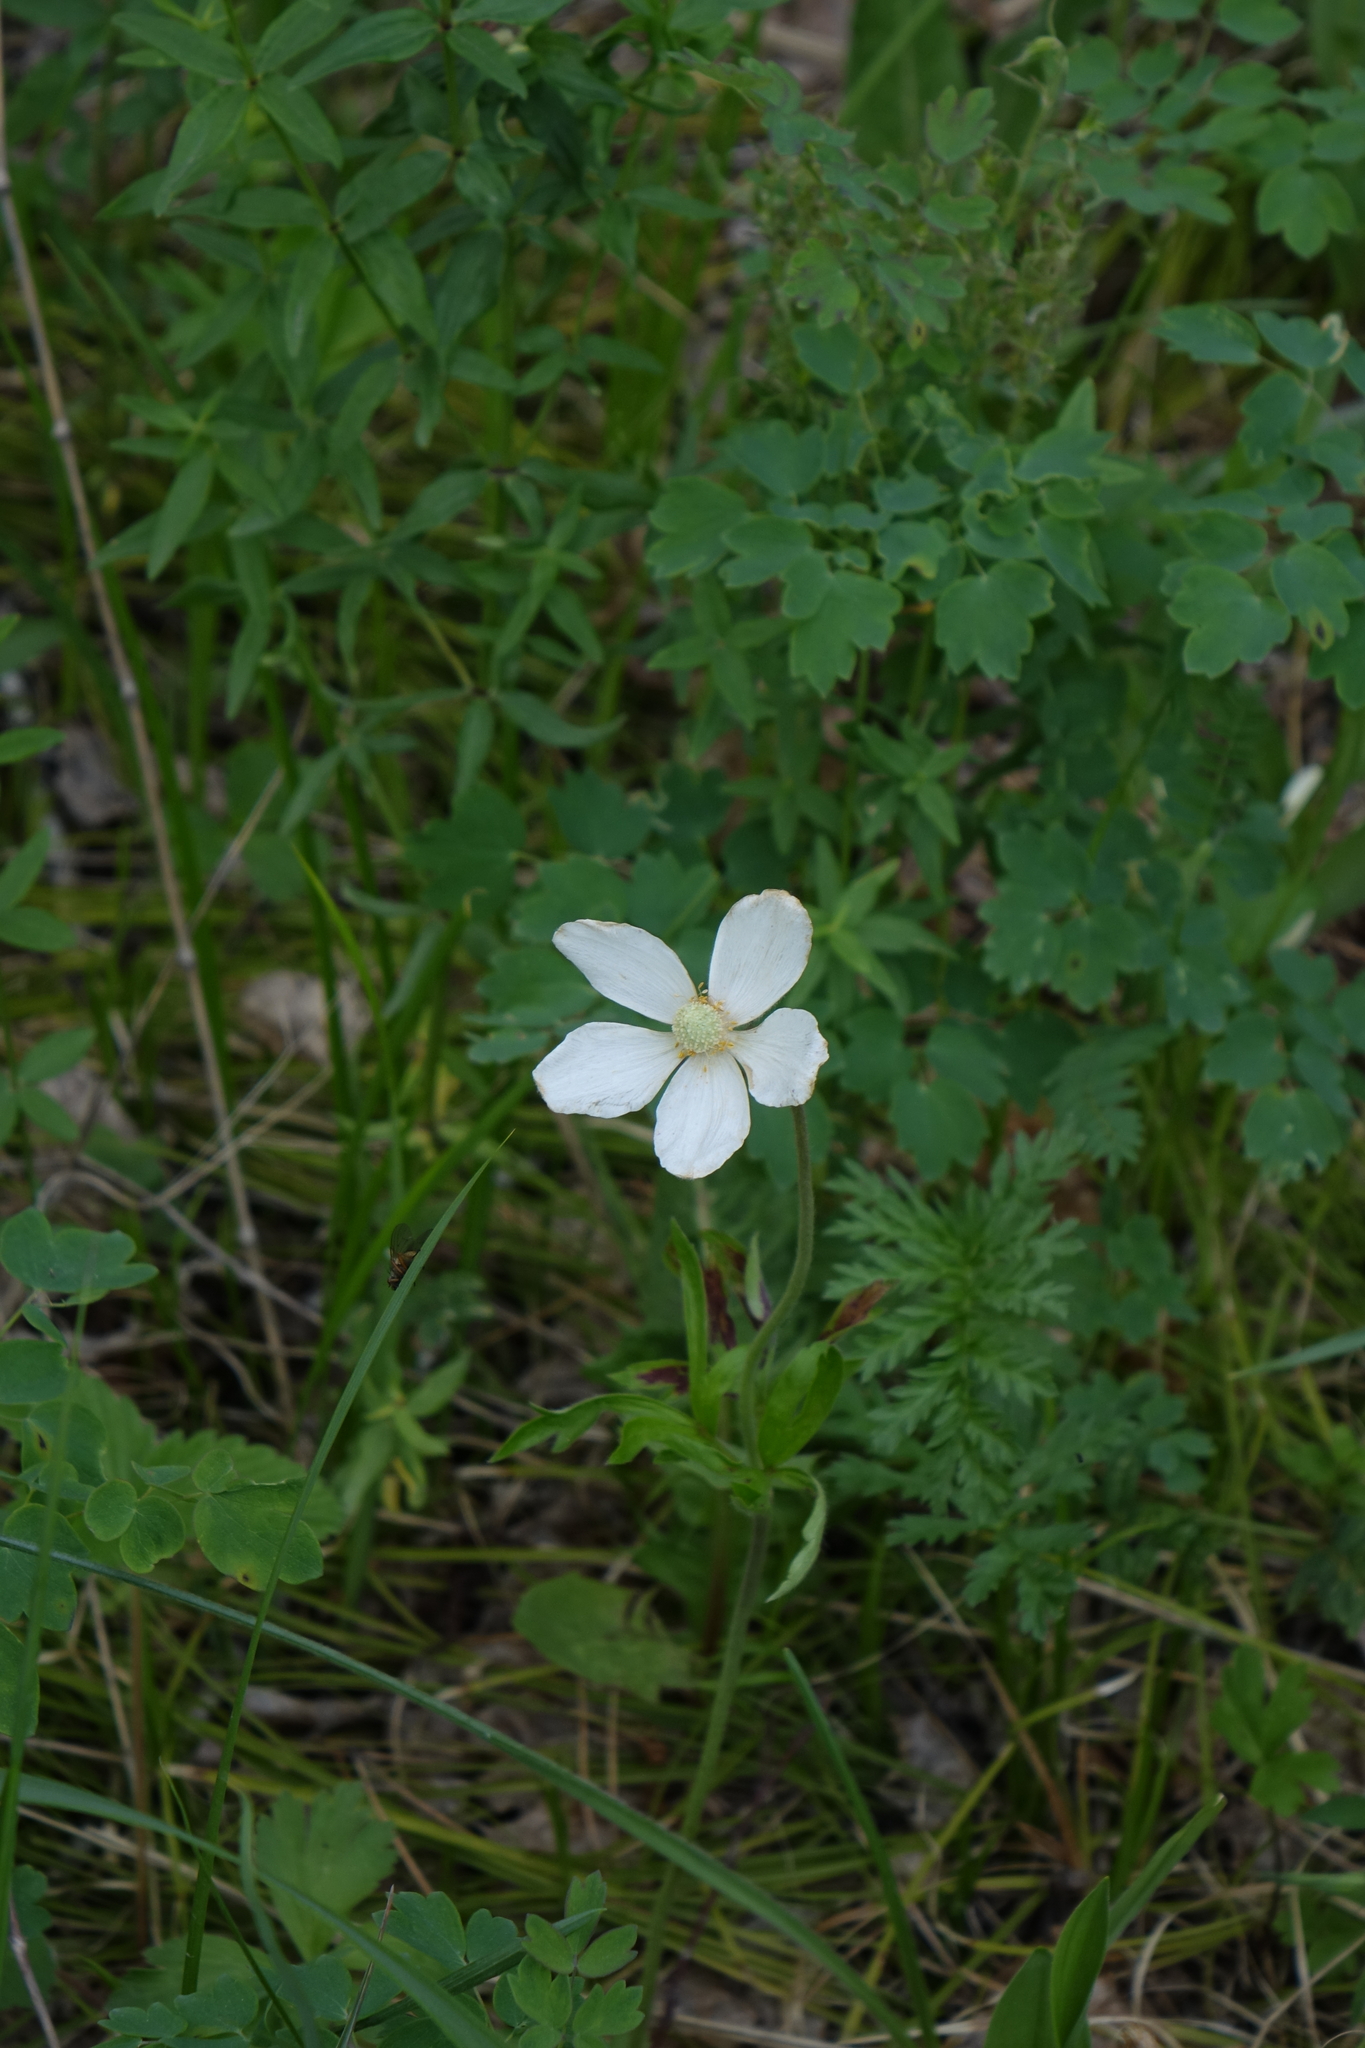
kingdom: Plantae
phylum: Tracheophyta
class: Magnoliopsida
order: Ranunculales
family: Ranunculaceae
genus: Anemone
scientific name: Anemone sylvestris
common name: Snowdrop anemone
